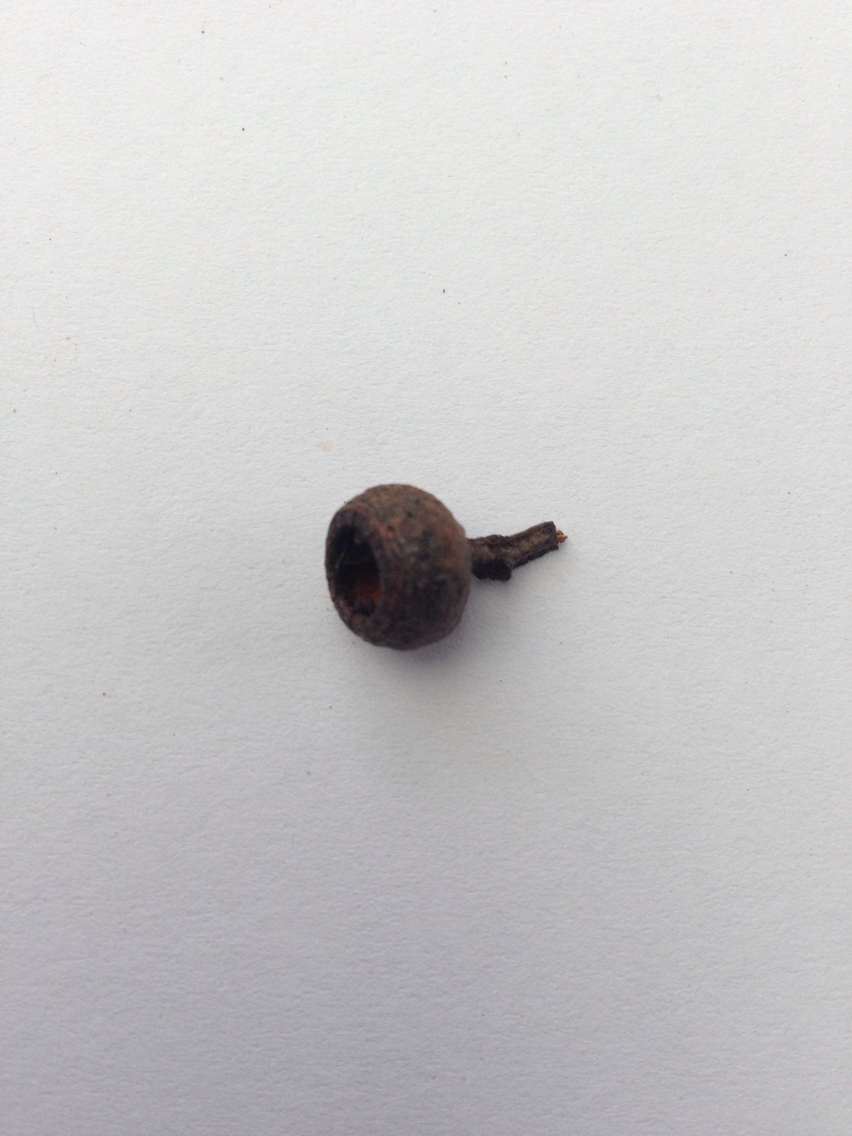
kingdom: Plantae
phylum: Tracheophyta
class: Magnoliopsida
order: Myrtales
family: Myrtaceae
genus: Eucalyptus
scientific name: Eucalyptus muelleriana
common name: Yellow-stringybark
